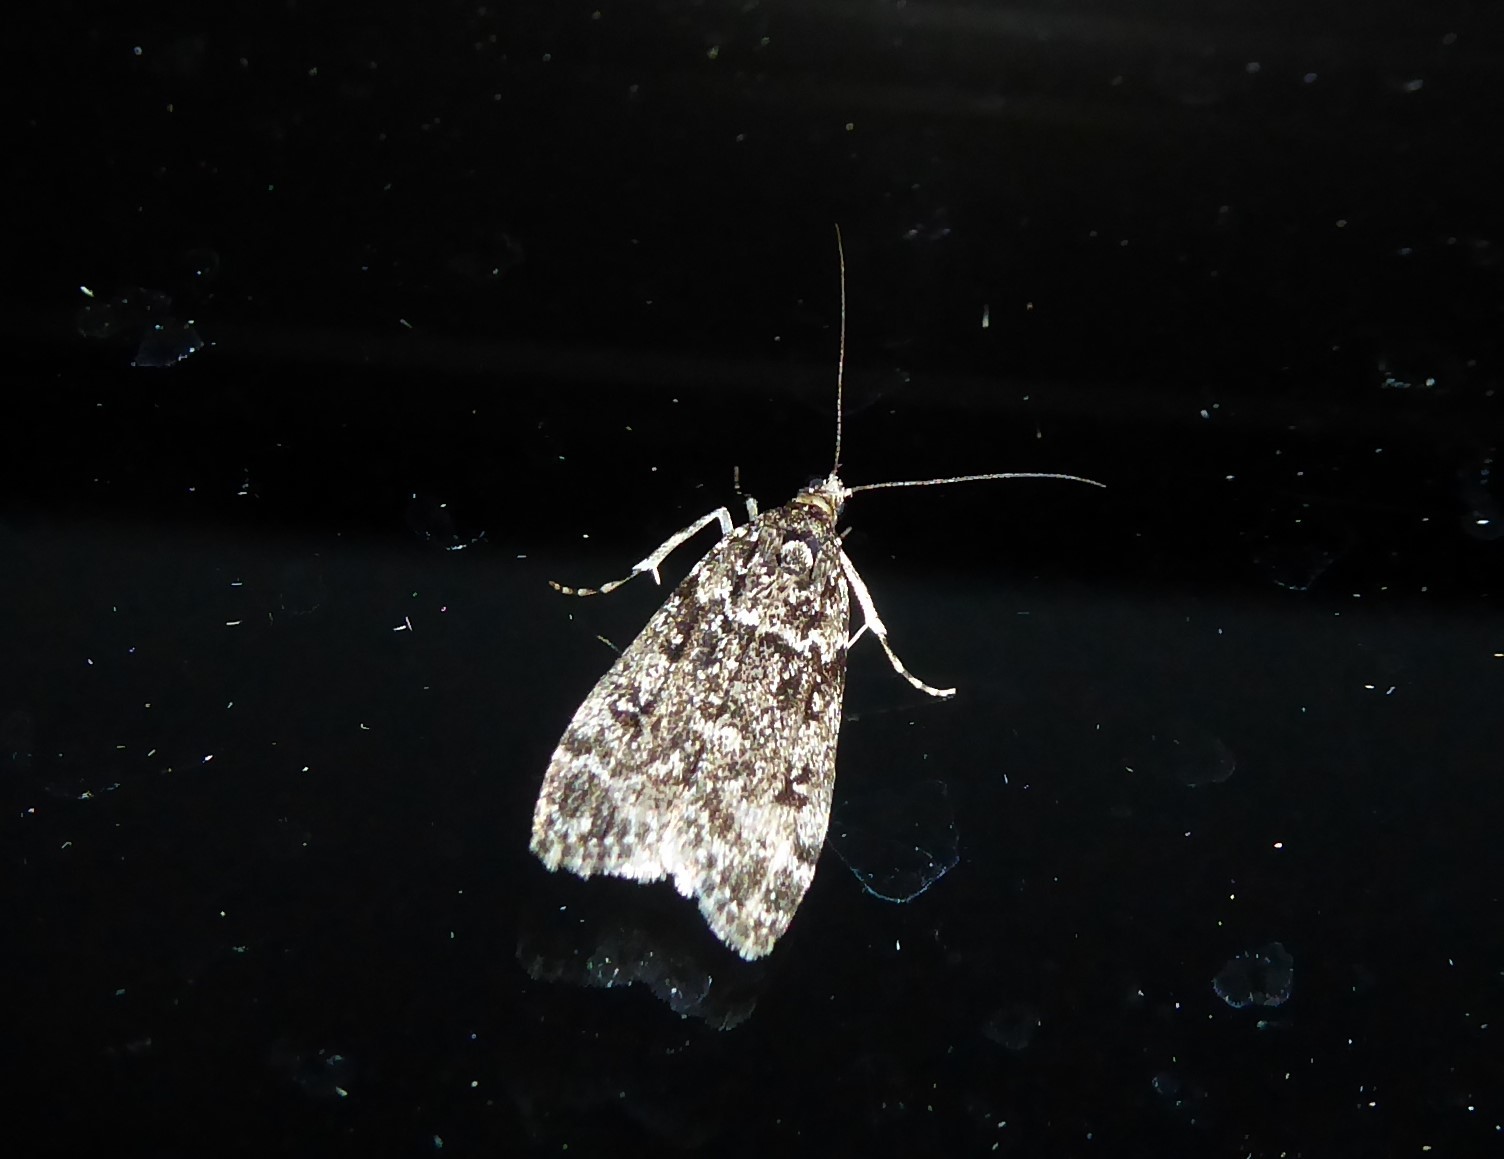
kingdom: Animalia
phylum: Arthropoda
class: Insecta
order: Lepidoptera
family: Crambidae
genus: Eudonia
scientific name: Eudonia philerga
